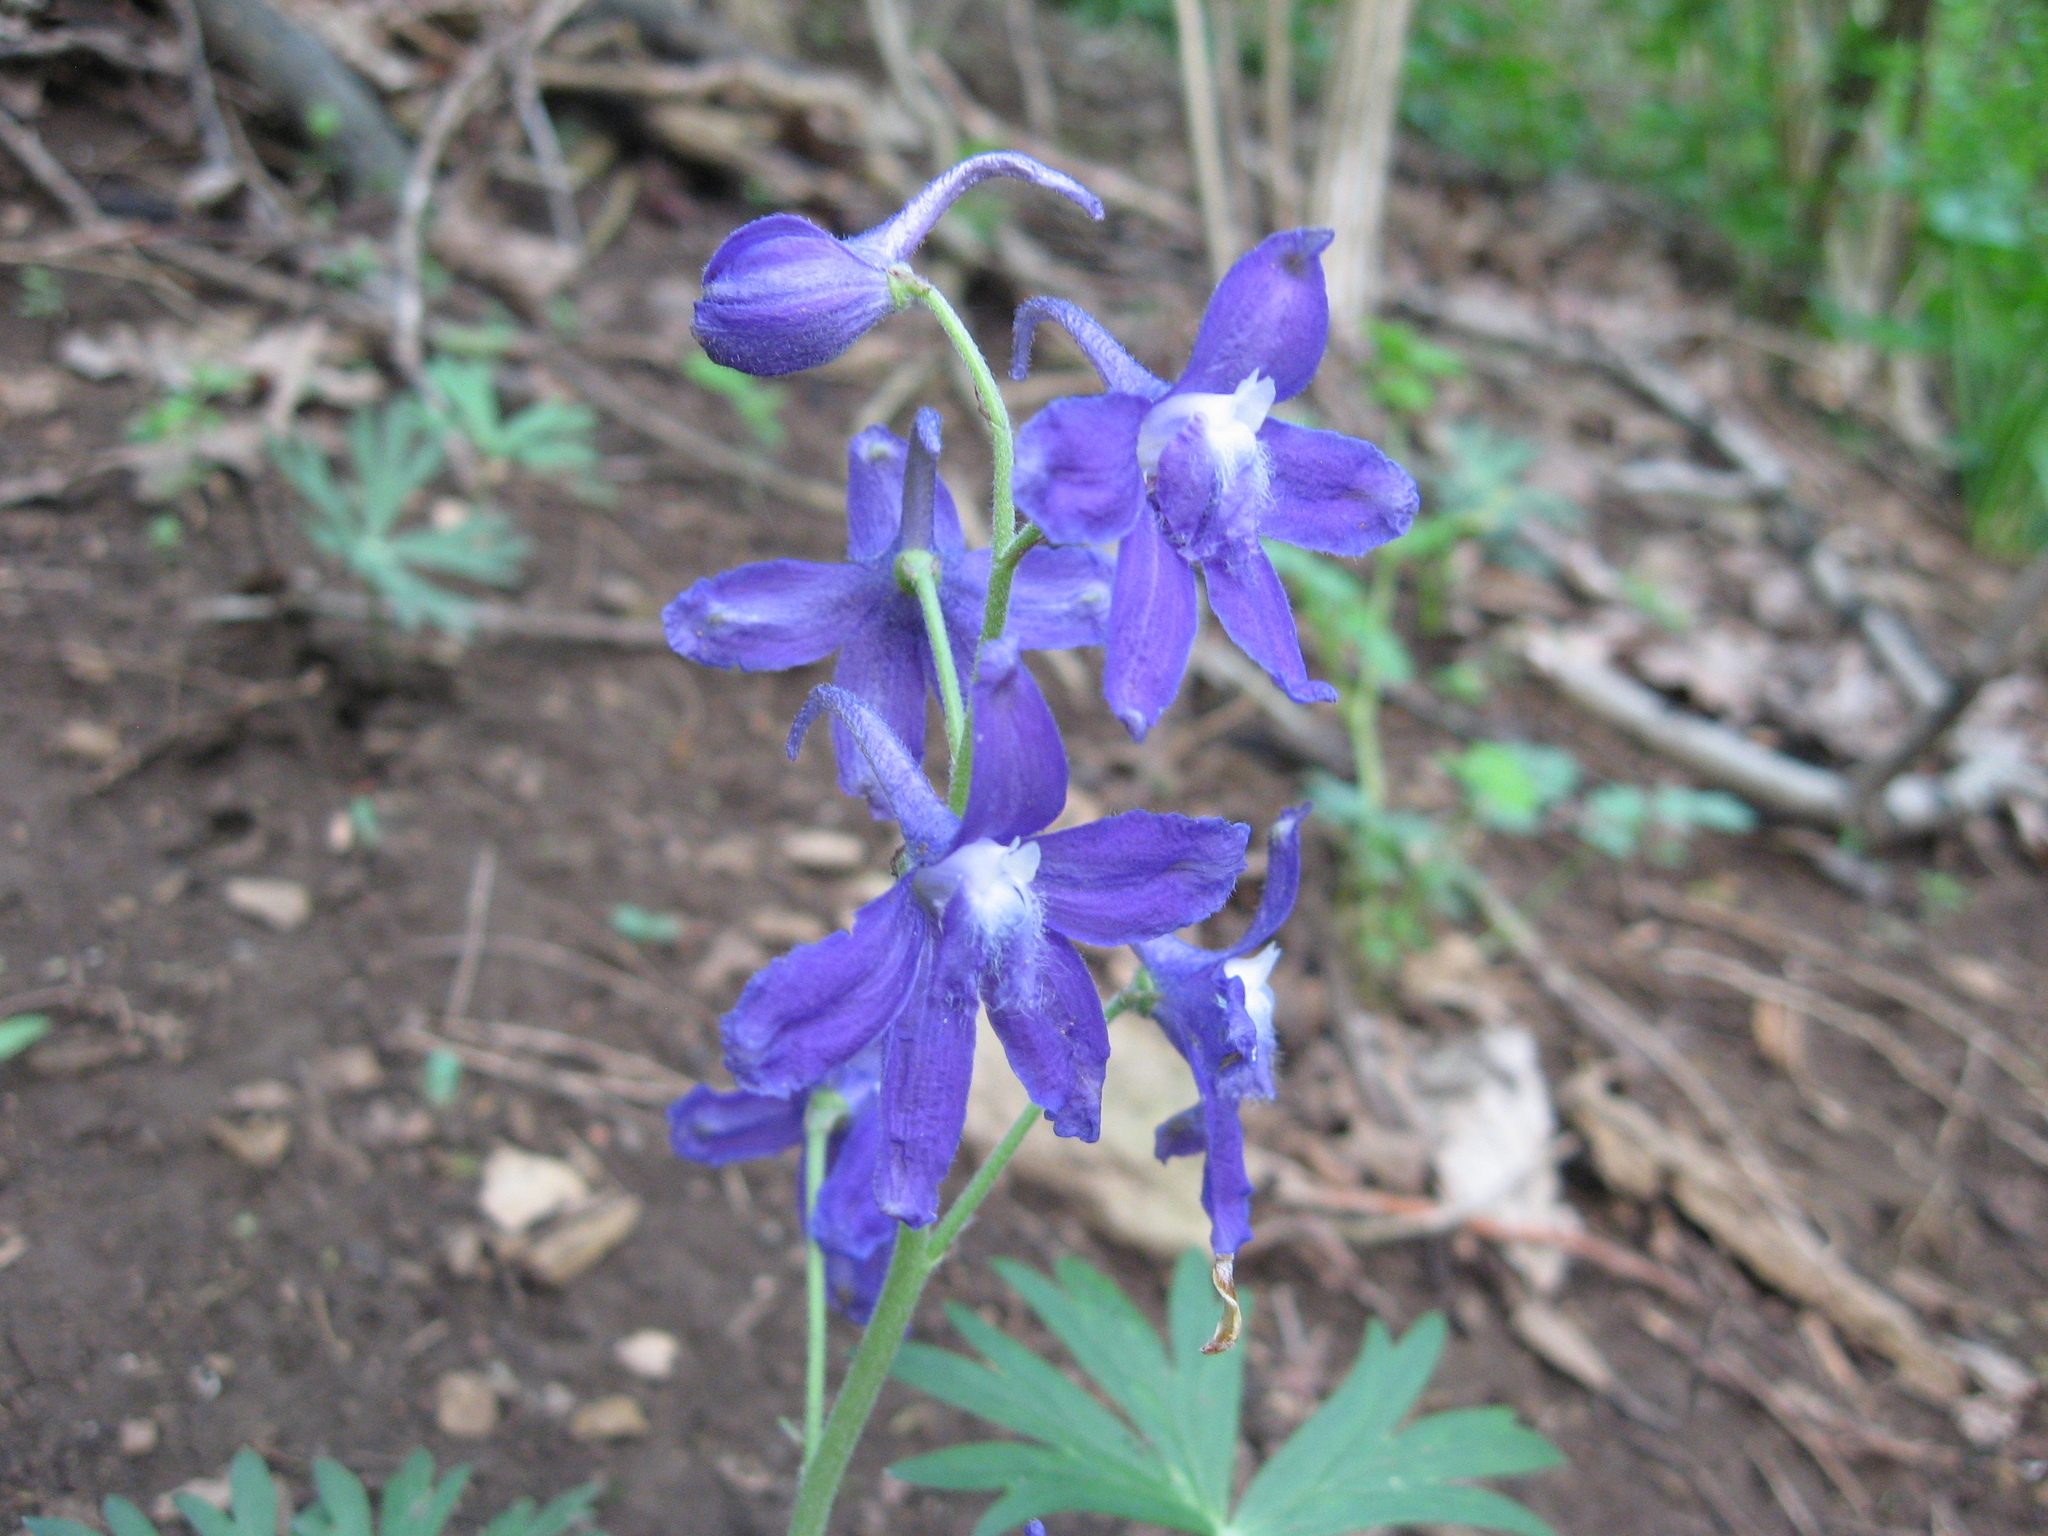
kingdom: Plantae
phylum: Tracheophyta
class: Magnoliopsida
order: Ranunculales
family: Ranunculaceae
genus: Delphinium
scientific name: Delphinium tricorne
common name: Dwarf larkspur
